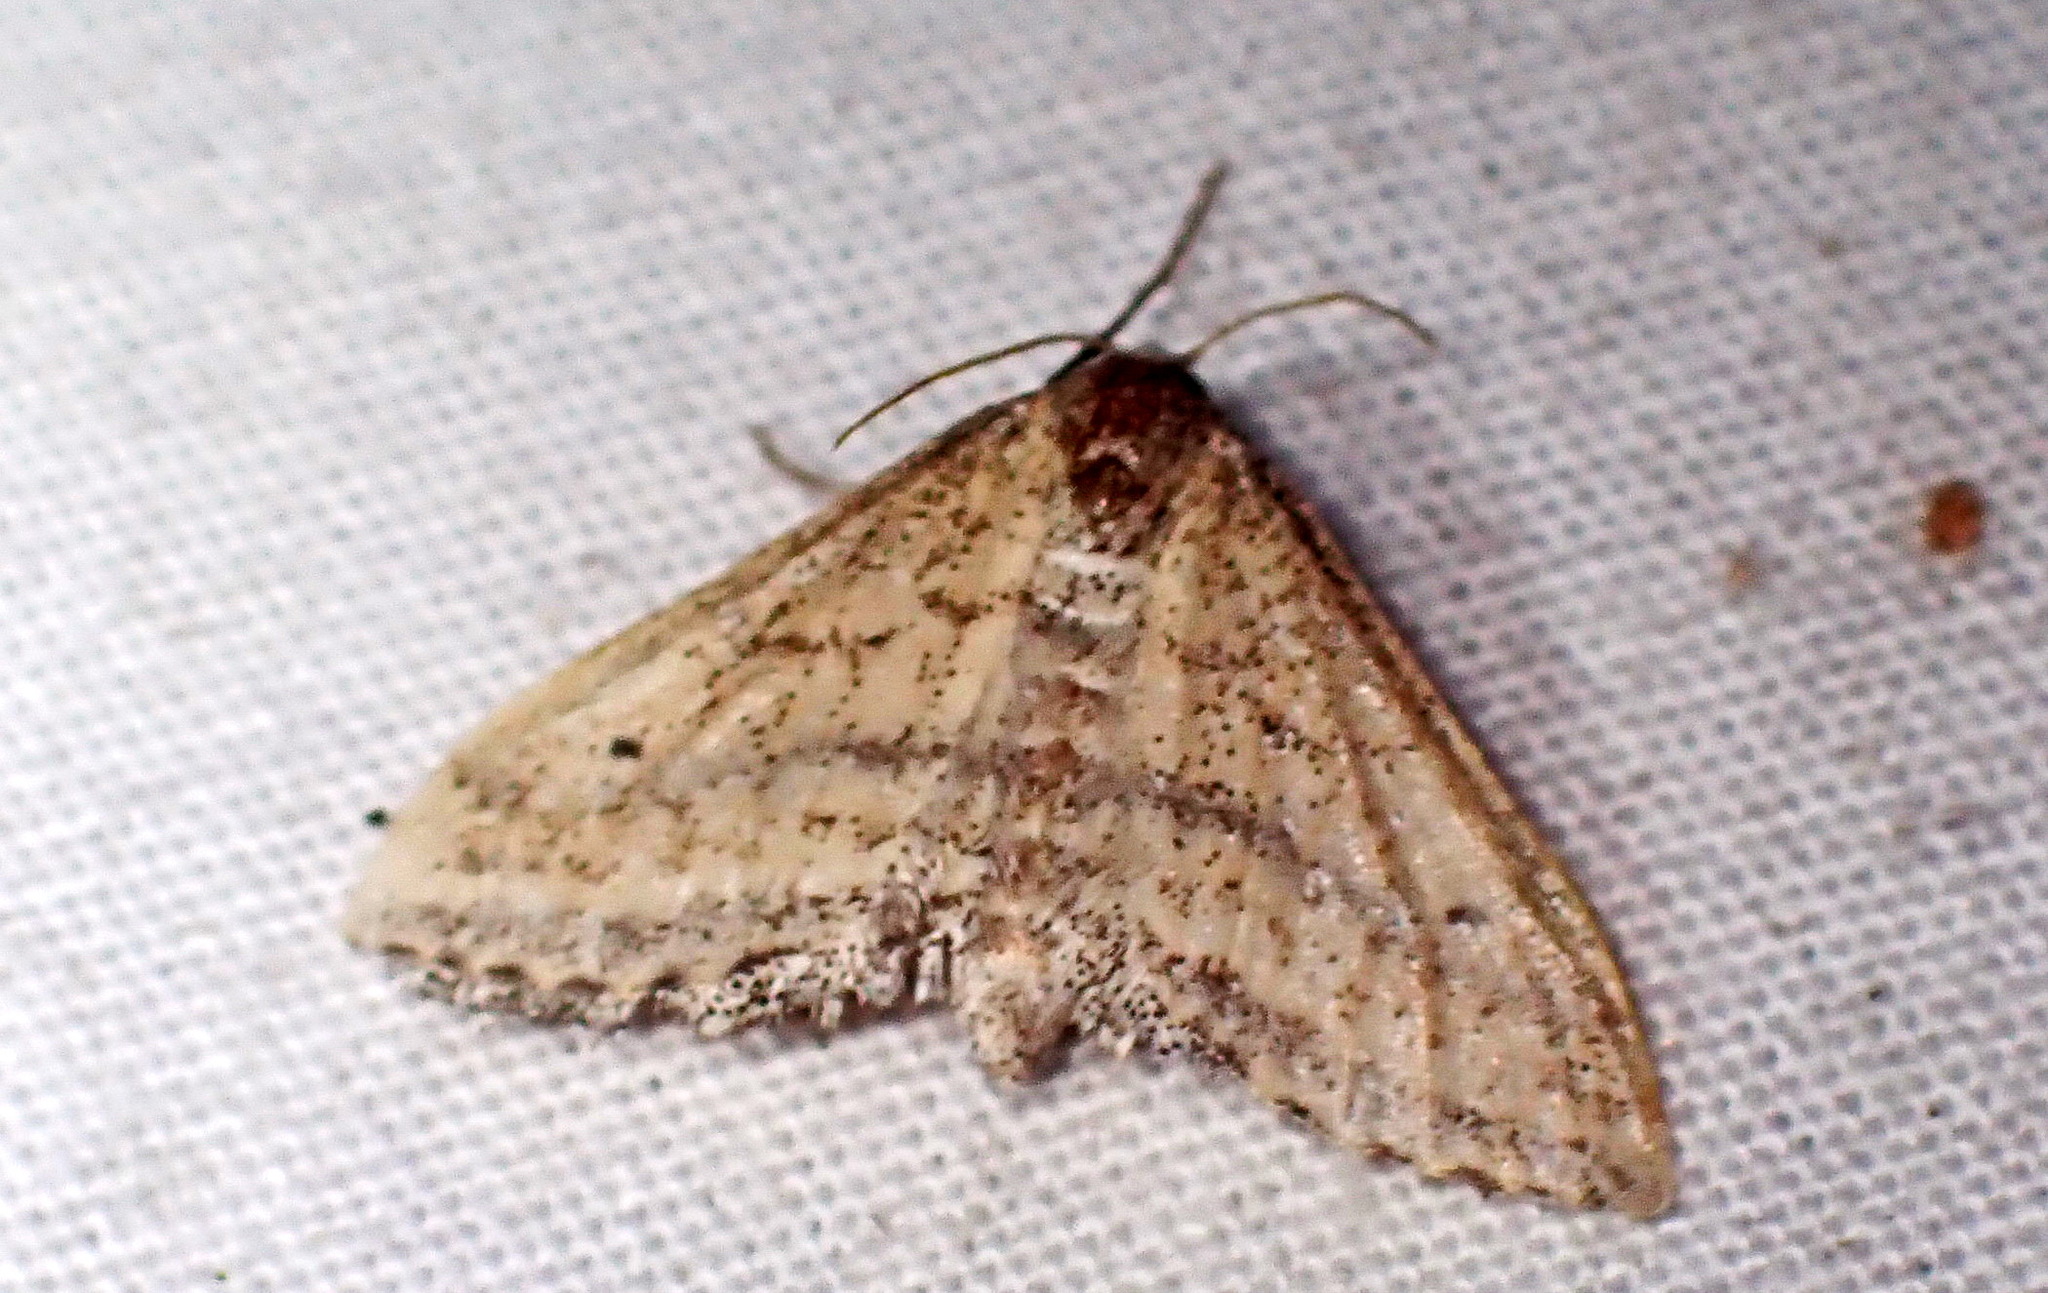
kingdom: Animalia
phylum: Arthropoda
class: Insecta
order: Lepidoptera
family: Geometridae
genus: Lobocleta
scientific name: Lobocleta plemyraria
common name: Straight-lined wave
